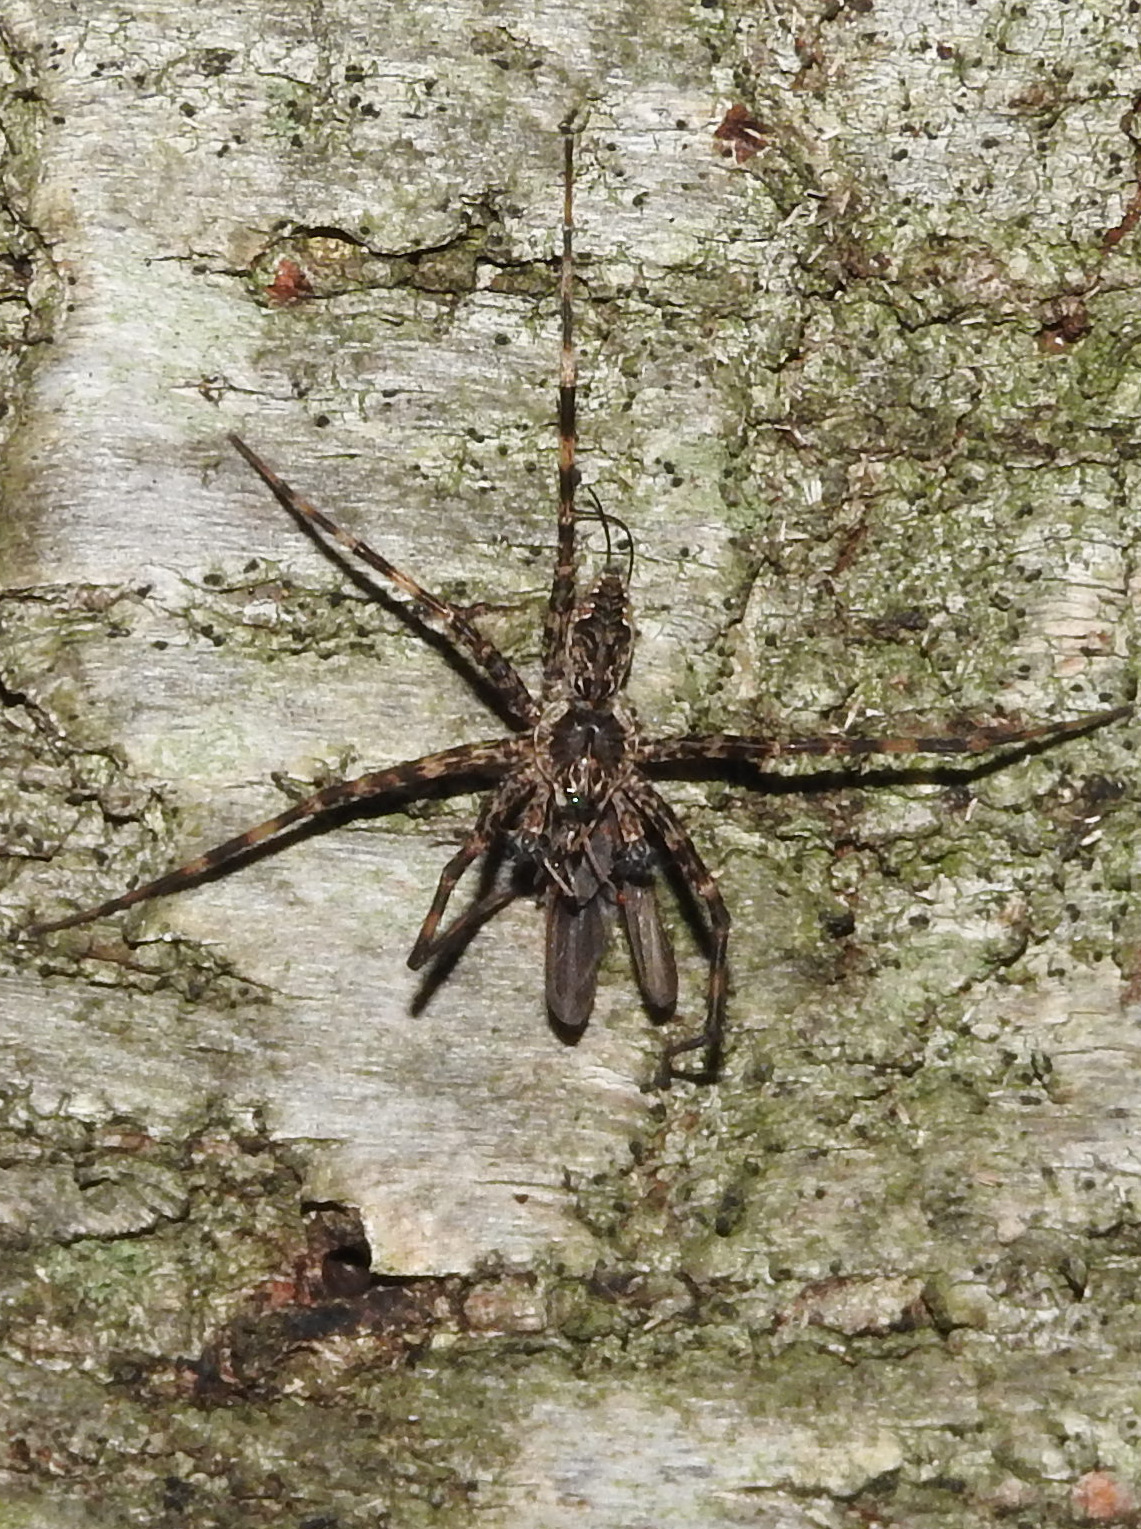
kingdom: Animalia
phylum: Arthropoda
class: Arachnida
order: Araneae
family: Pisauridae
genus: Dolomedes
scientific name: Dolomedes tenebrosus
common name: Dark fishing spider
